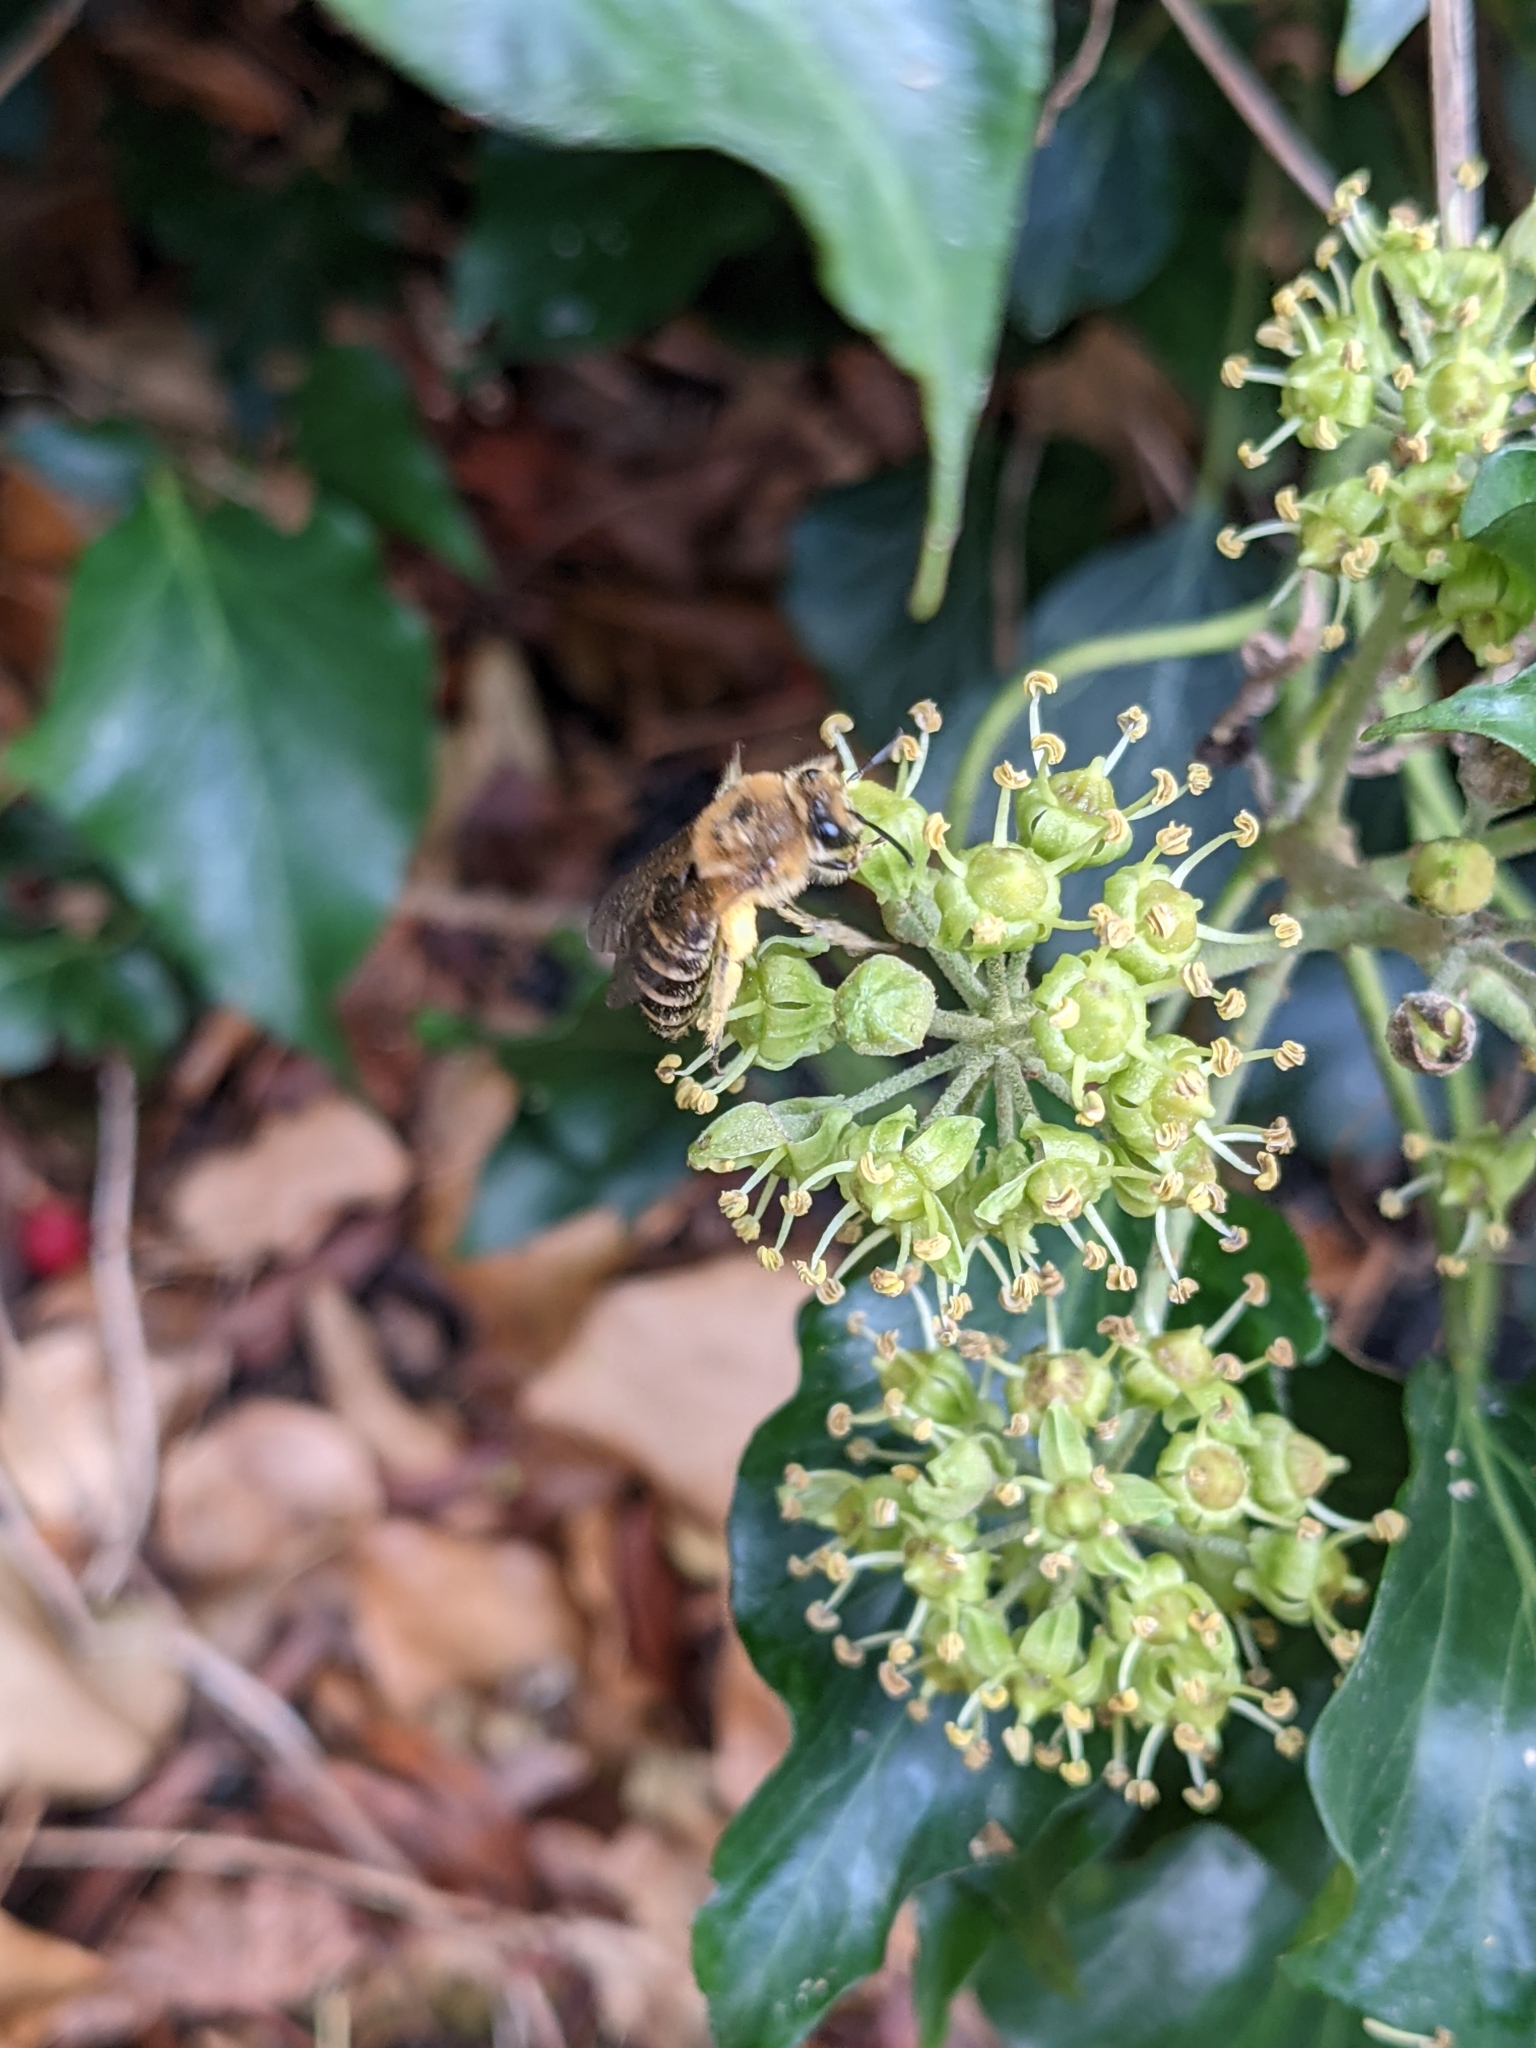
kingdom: Animalia
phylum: Arthropoda
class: Insecta
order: Hymenoptera
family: Colletidae
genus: Colletes
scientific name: Colletes hederae
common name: Ivy bee
